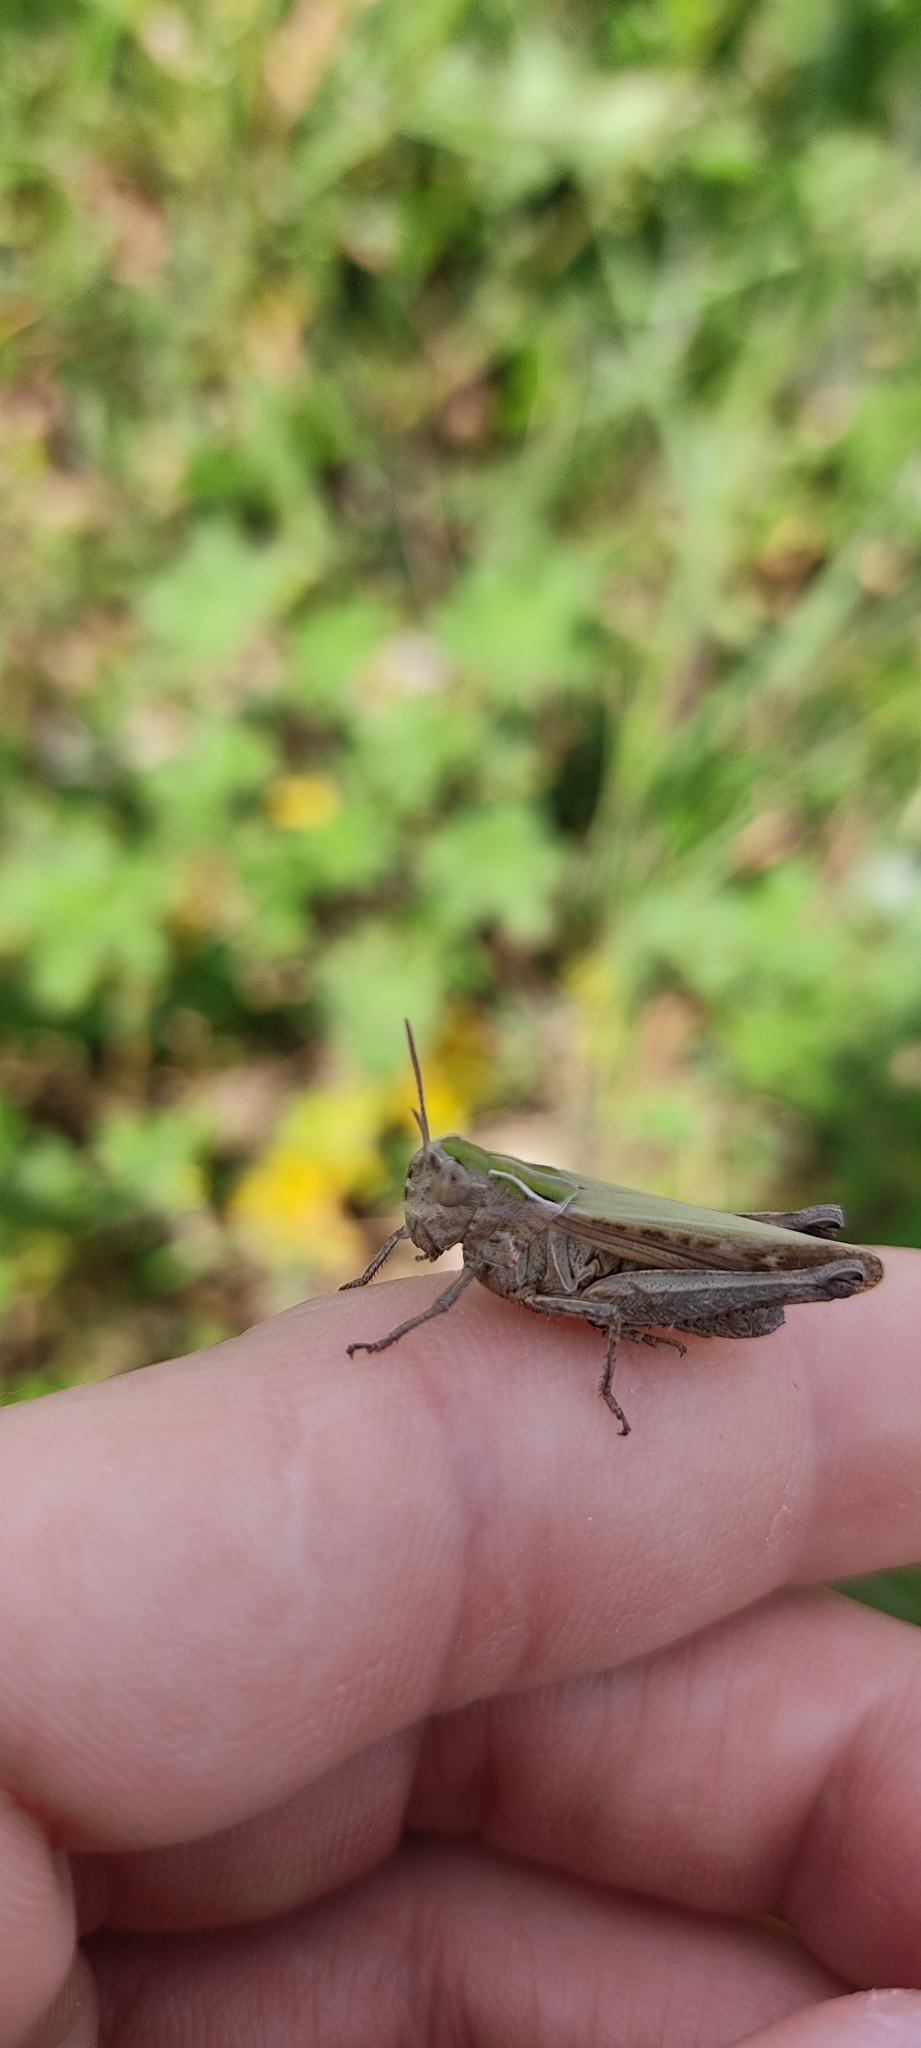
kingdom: Animalia
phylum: Arthropoda
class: Insecta
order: Orthoptera
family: Acrididae
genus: Omocestus
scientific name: Omocestus rufipes
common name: Woodland grasshopper
